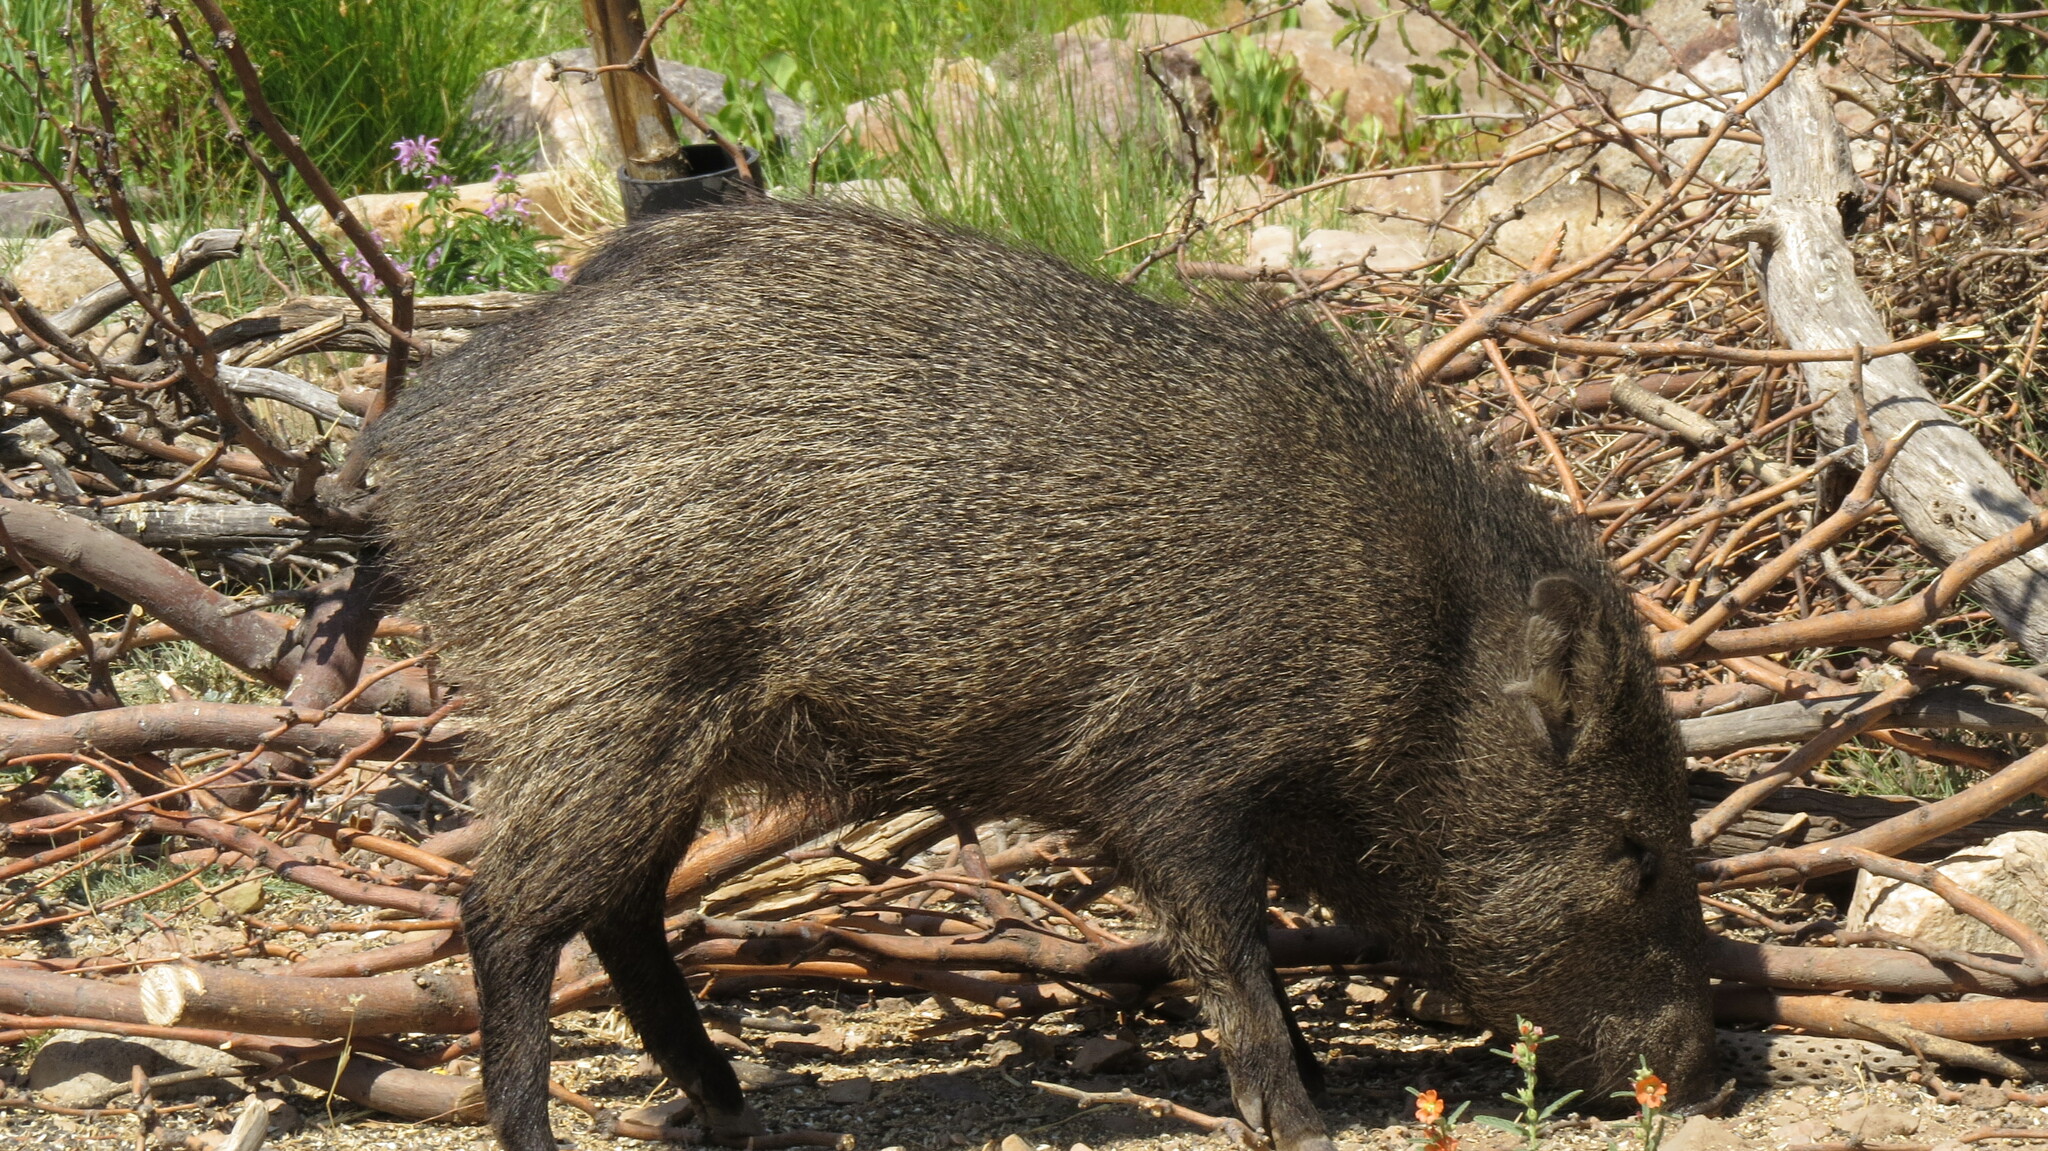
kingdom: Animalia
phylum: Chordata
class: Mammalia
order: Artiodactyla
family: Tayassuidae
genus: Pecari
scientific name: Pecari tajacu
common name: Collared peccary
